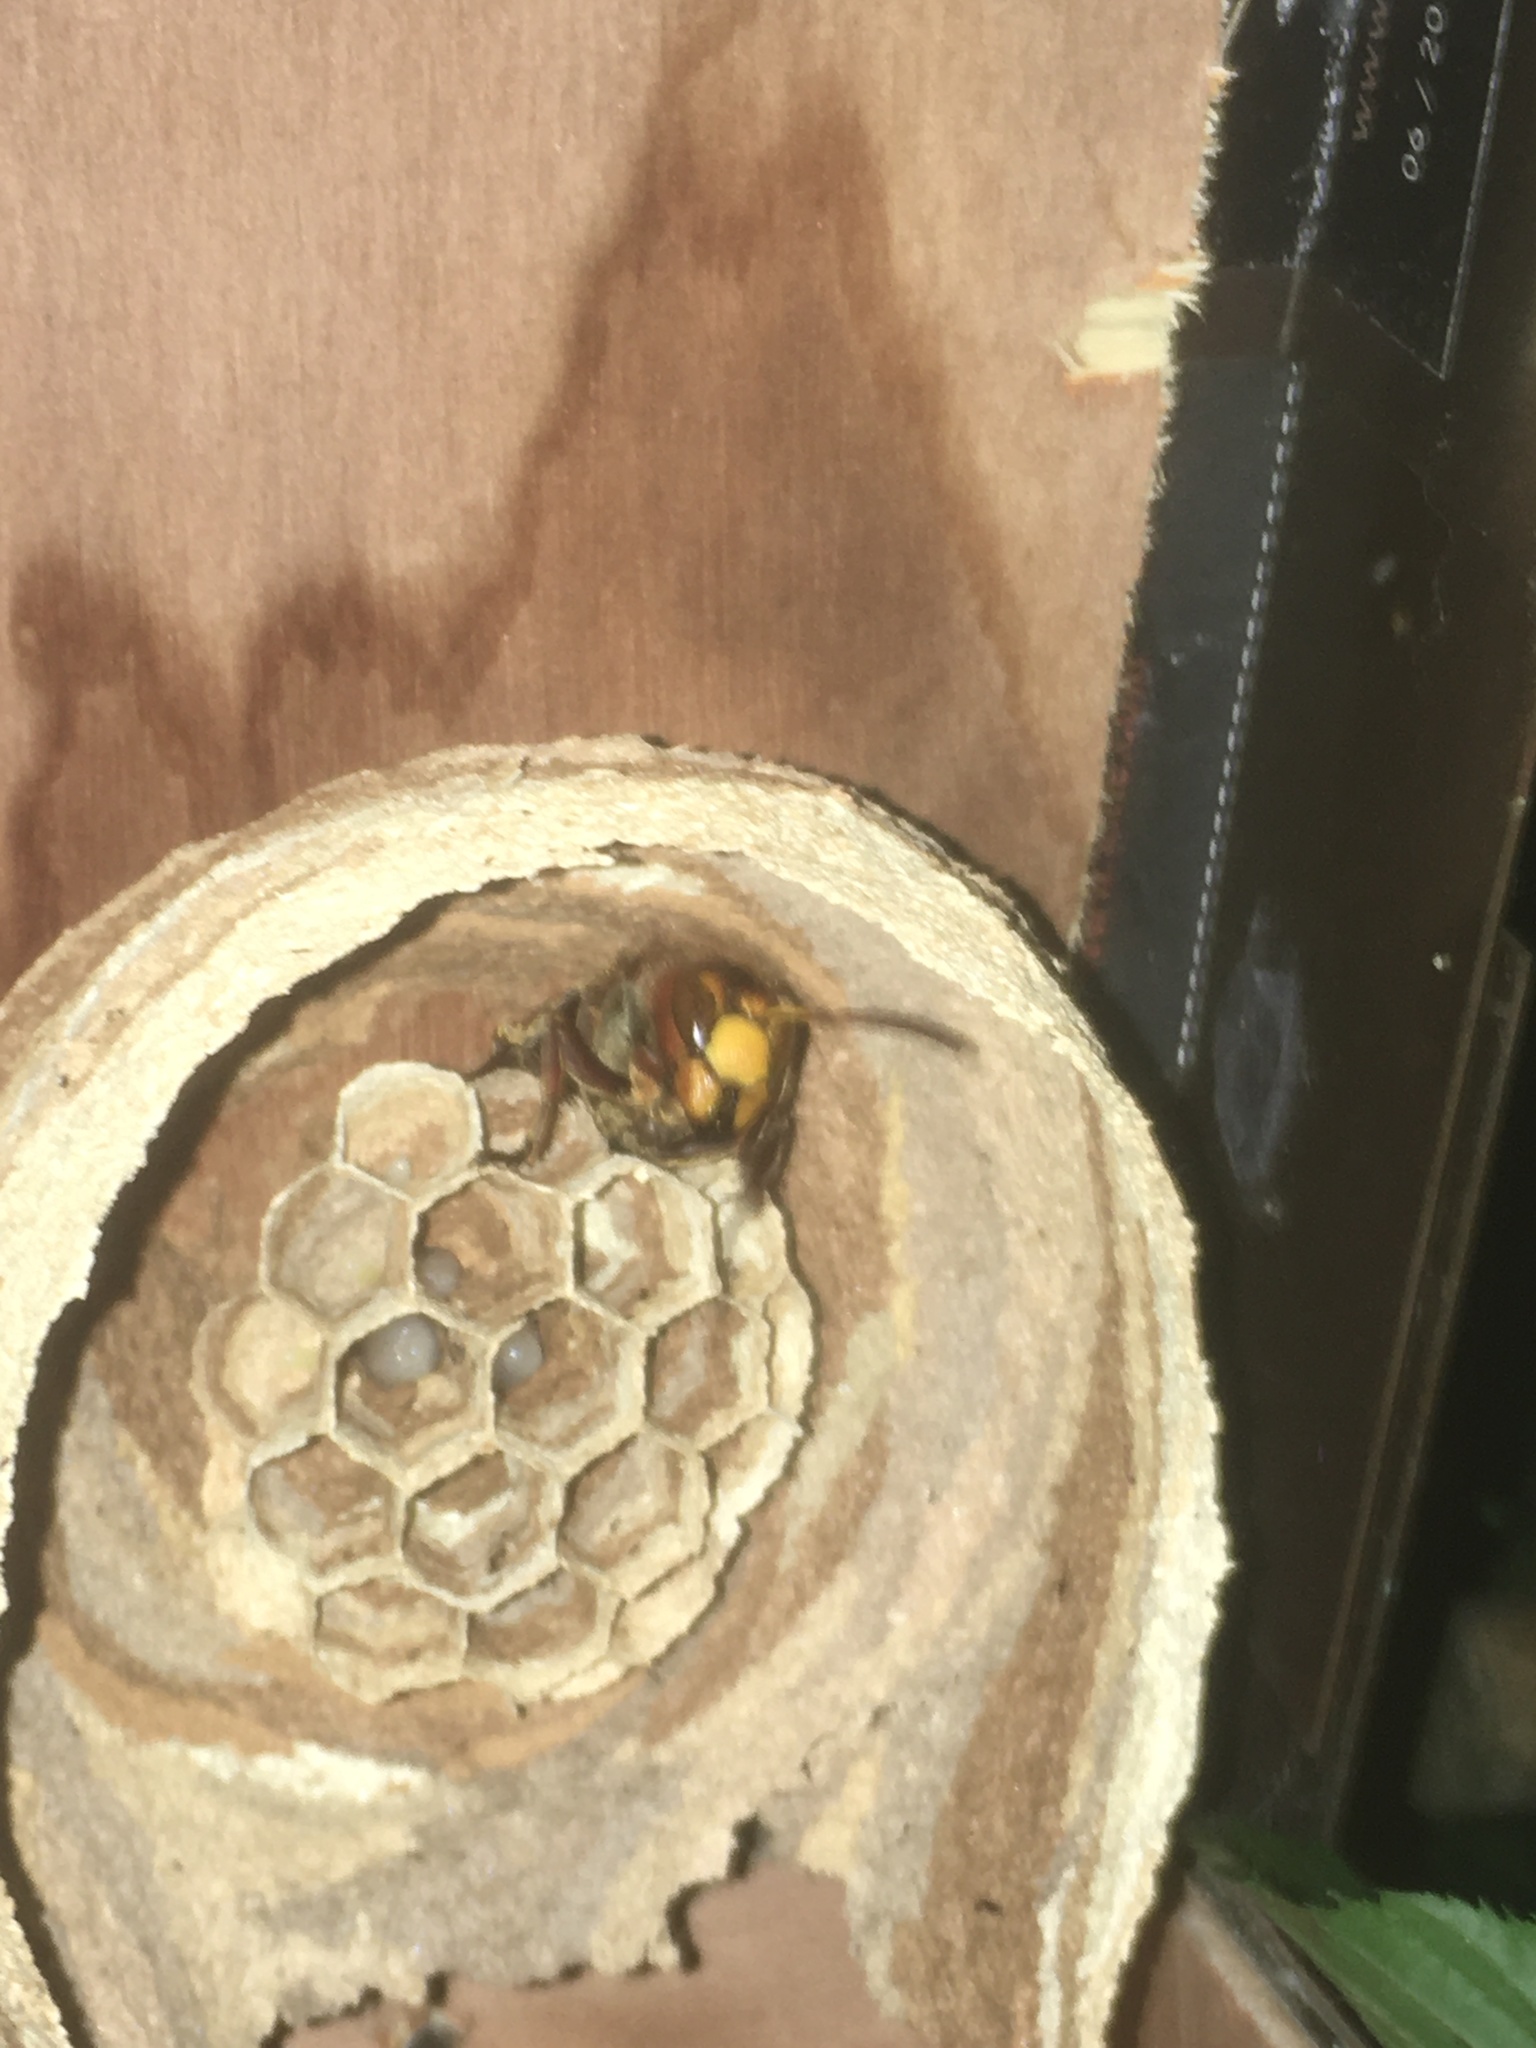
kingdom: Animalia
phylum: Arthropoda
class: Insecta
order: Hymenoptera
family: Vespidae
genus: Vespa
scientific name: Vespa crabro
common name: Hornet
